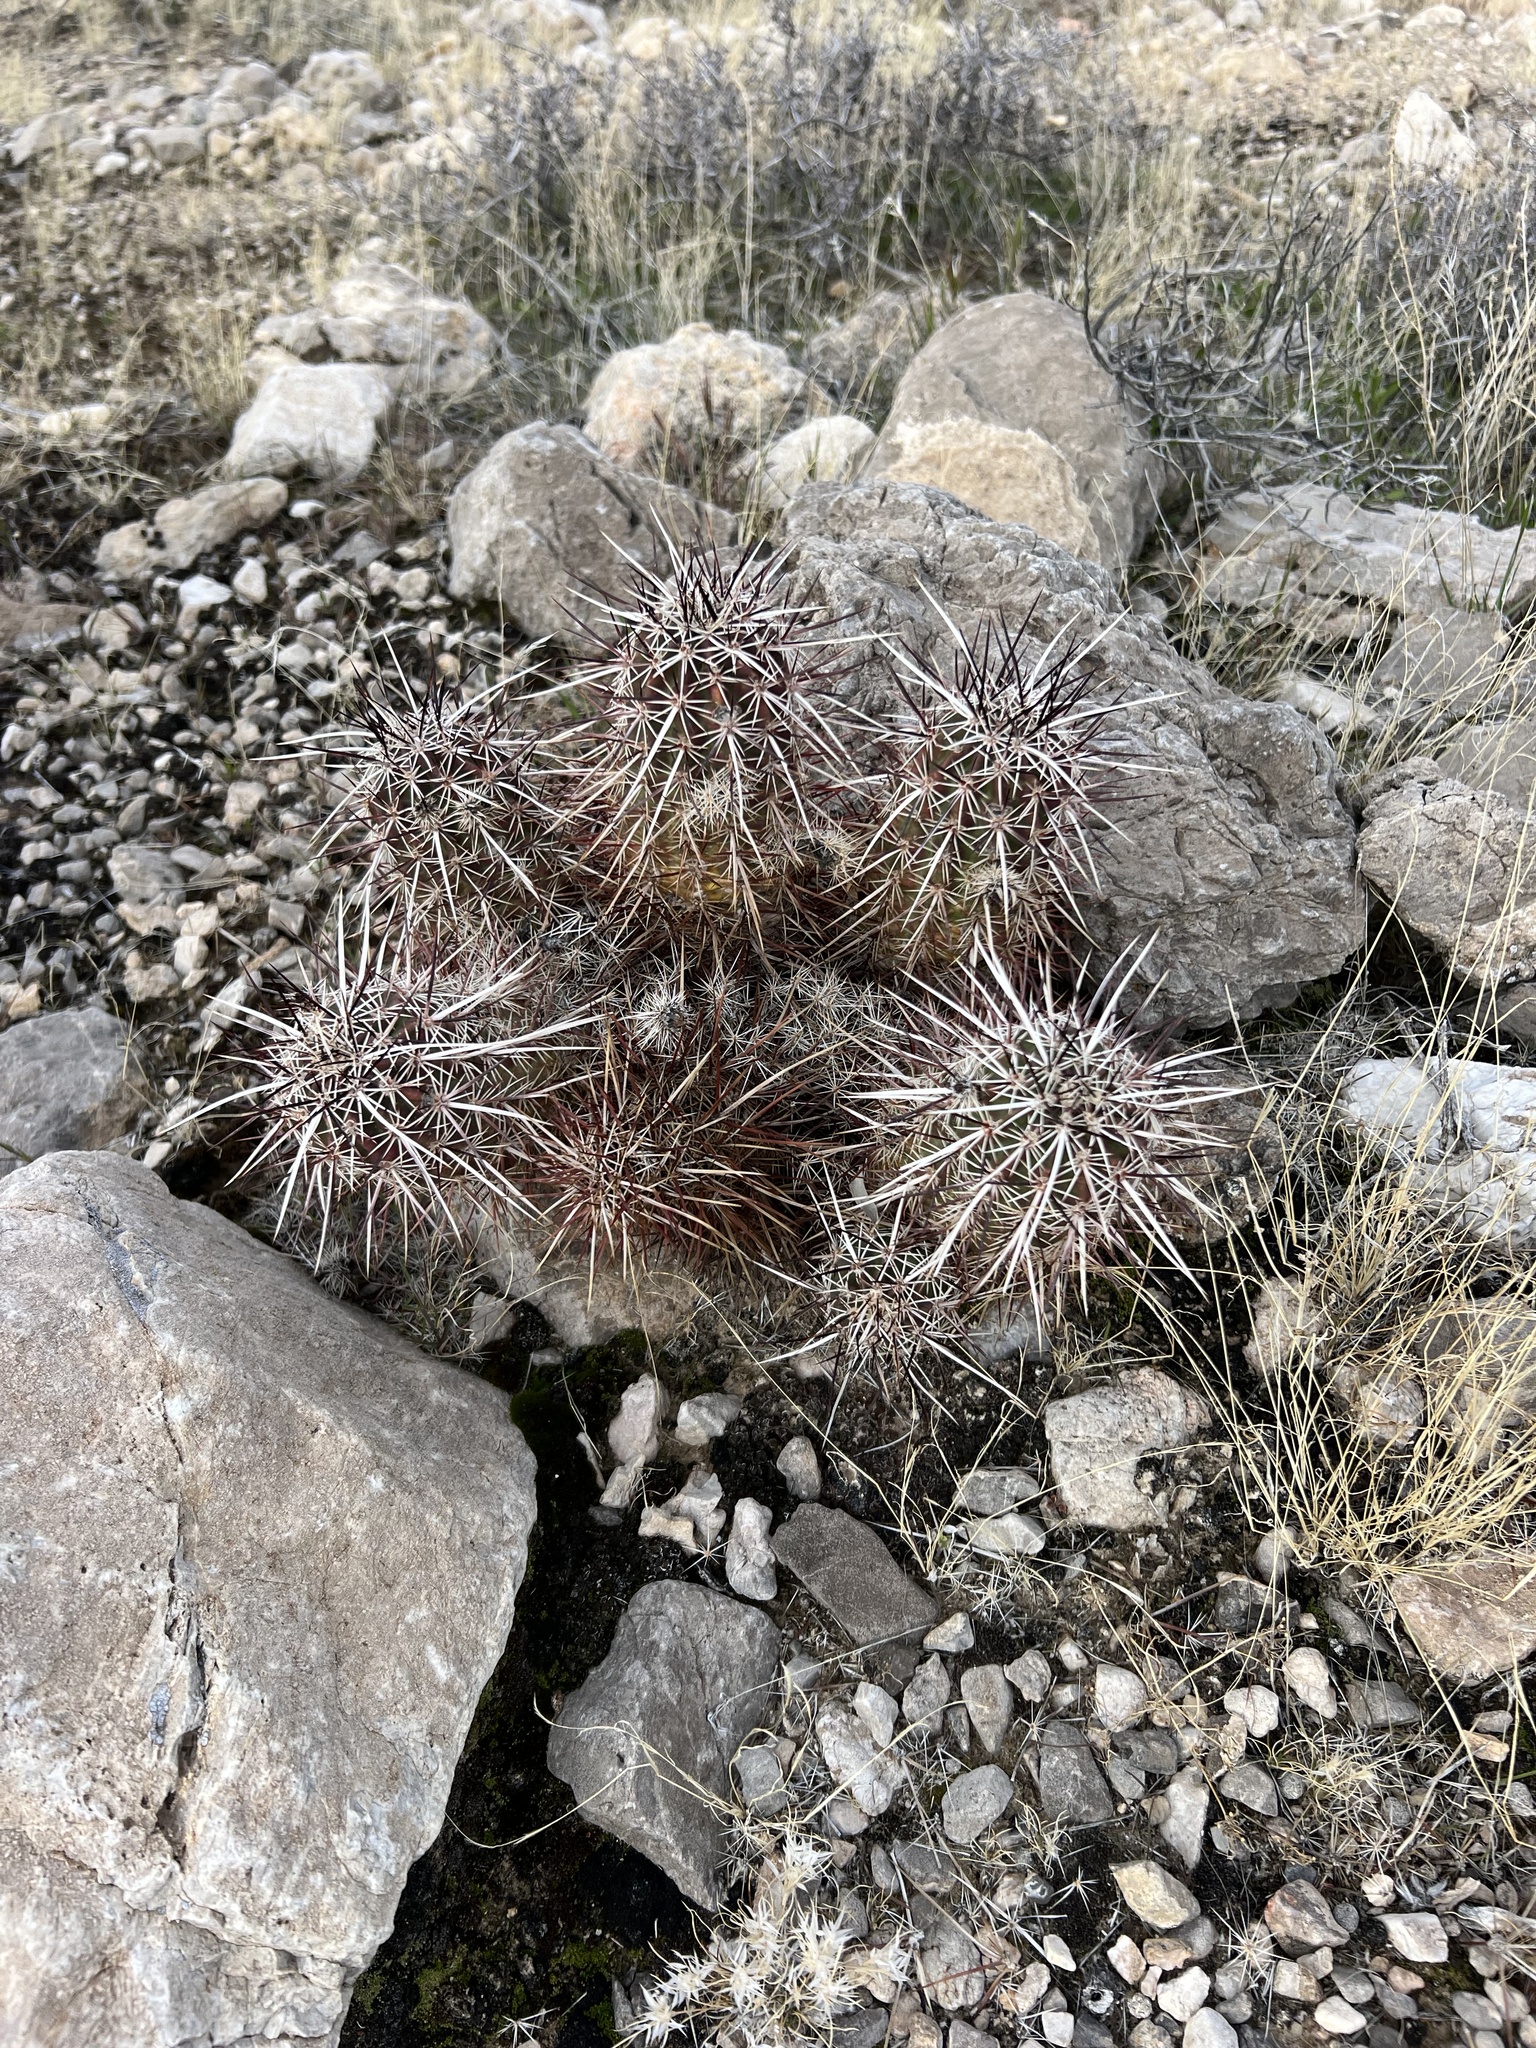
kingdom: Plantae
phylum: Tracheophyta
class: Magnoliopsida
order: Caryophyllales
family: Cactaceae
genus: Echinocereus
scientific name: Echinocereus engelmannii
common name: Engelmann's hedgehog cactus
